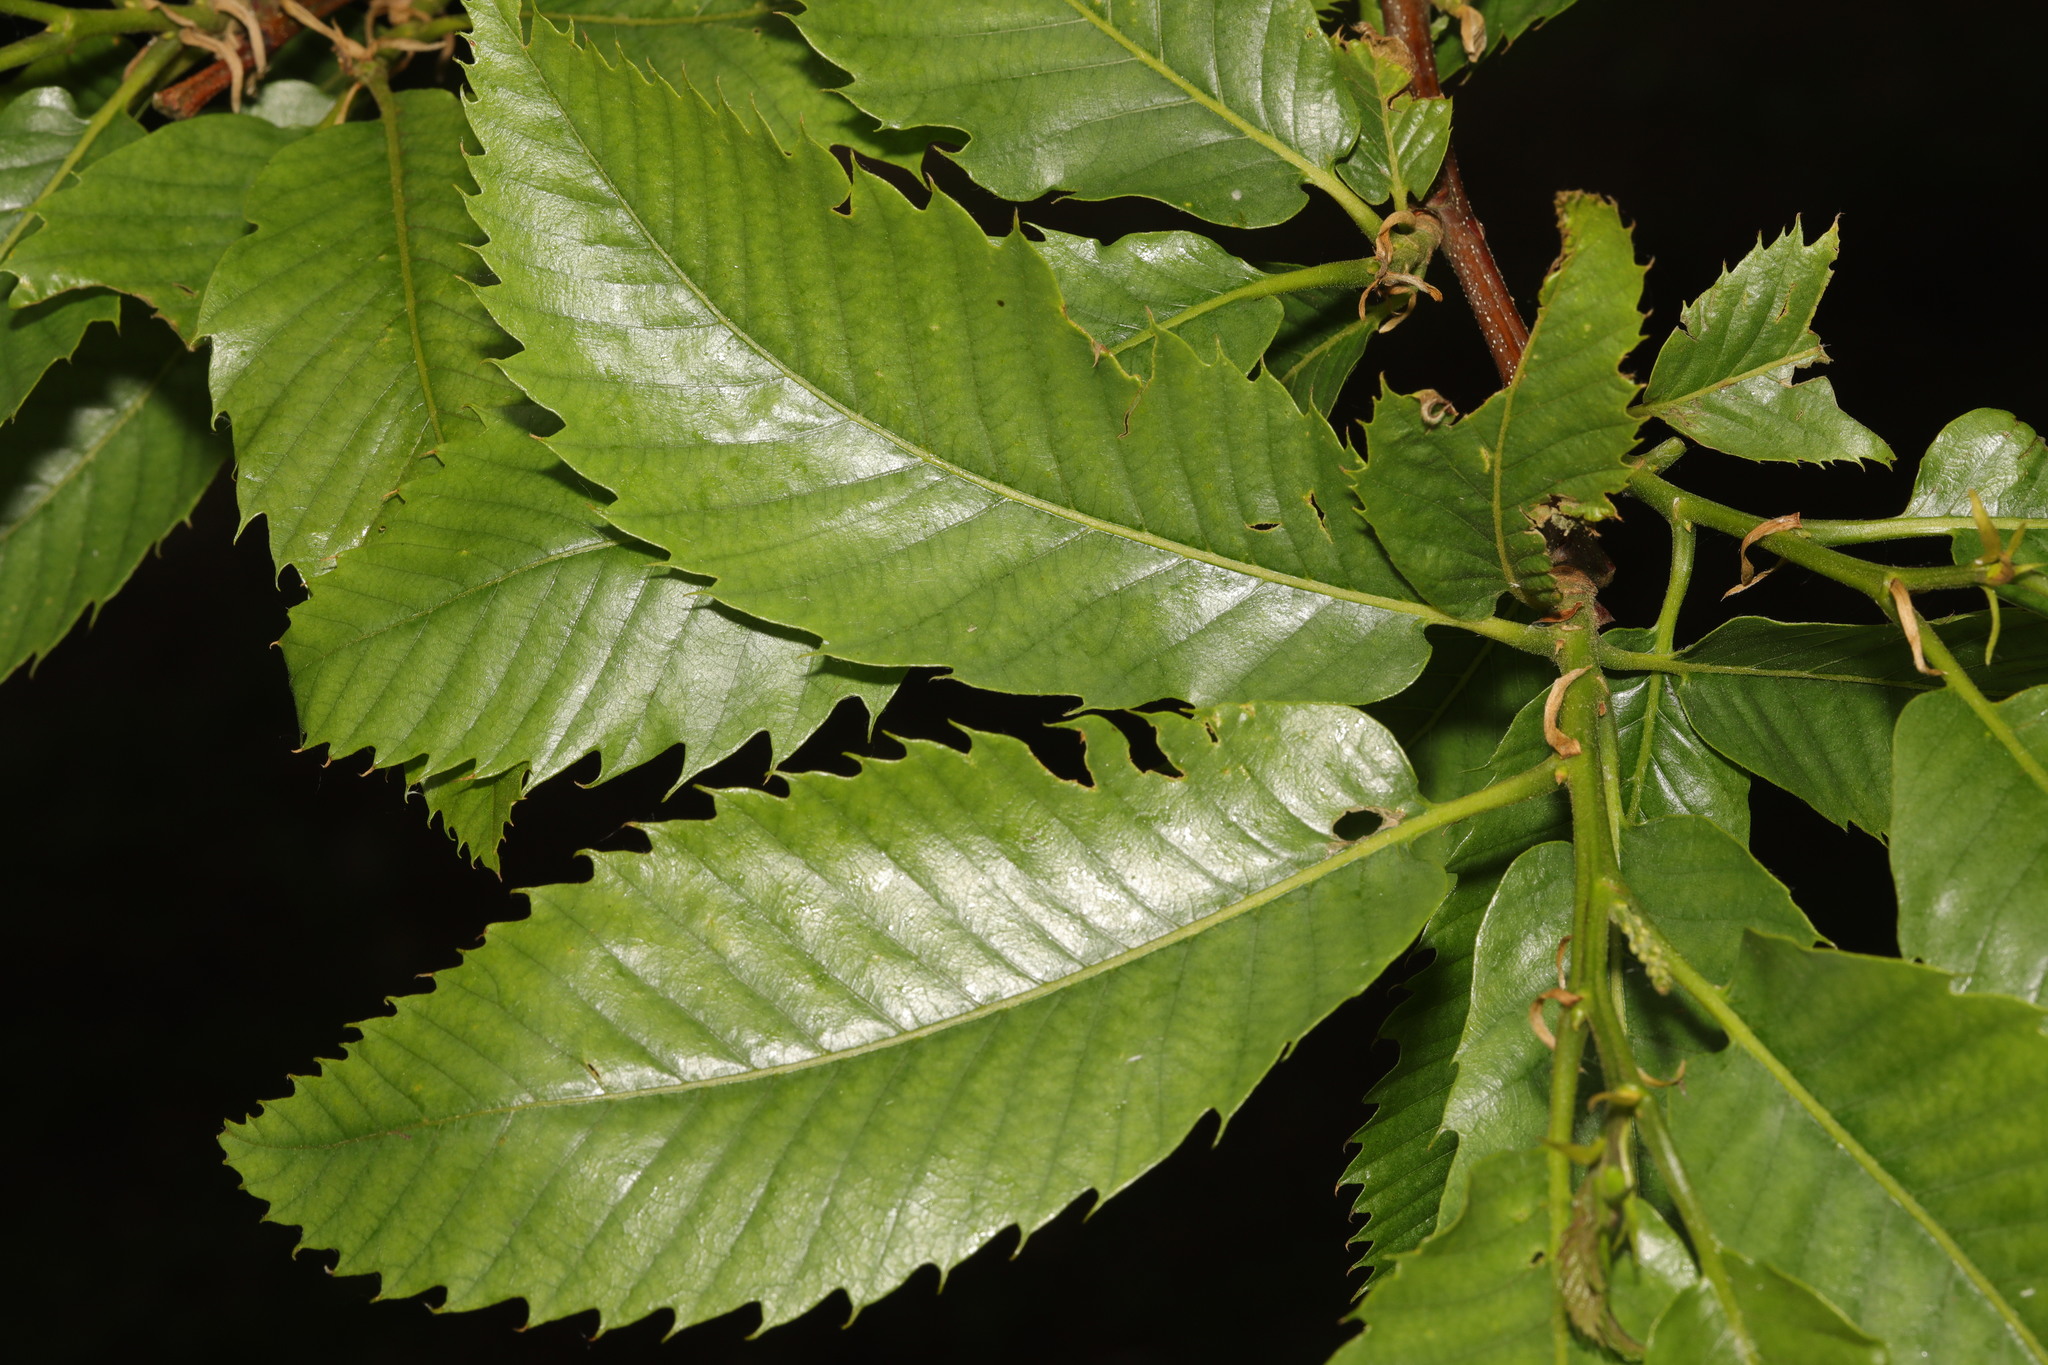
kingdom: Plantae
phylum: Tracheophyta
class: Magnoliopsida
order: Fagales
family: Fagaceae
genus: Castanea
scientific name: Castanea sativa
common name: Sweet chestnut
